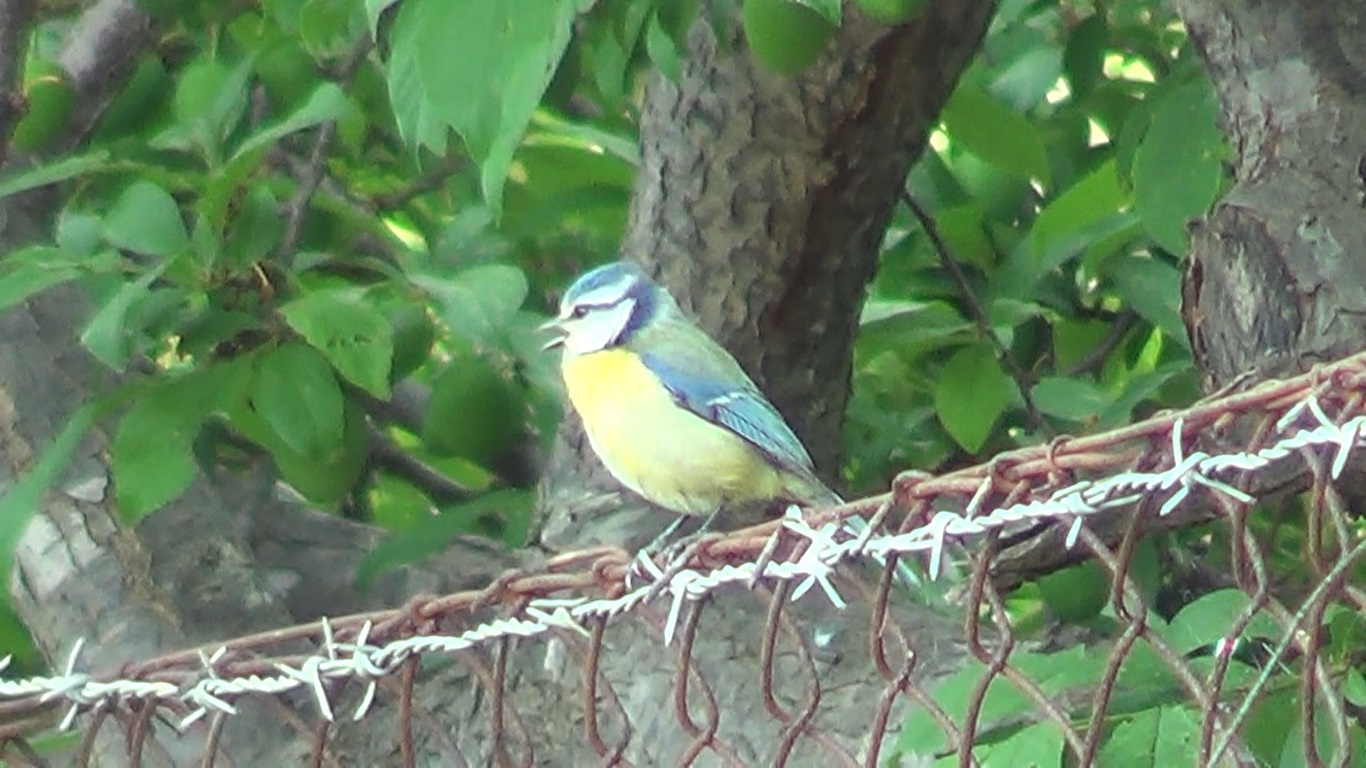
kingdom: Animalia
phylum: Chordata
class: Aves
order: Passeriformes
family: Paridae
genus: Cyanistes
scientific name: Cyanistes caeruleus
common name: Eurasian blue tit
